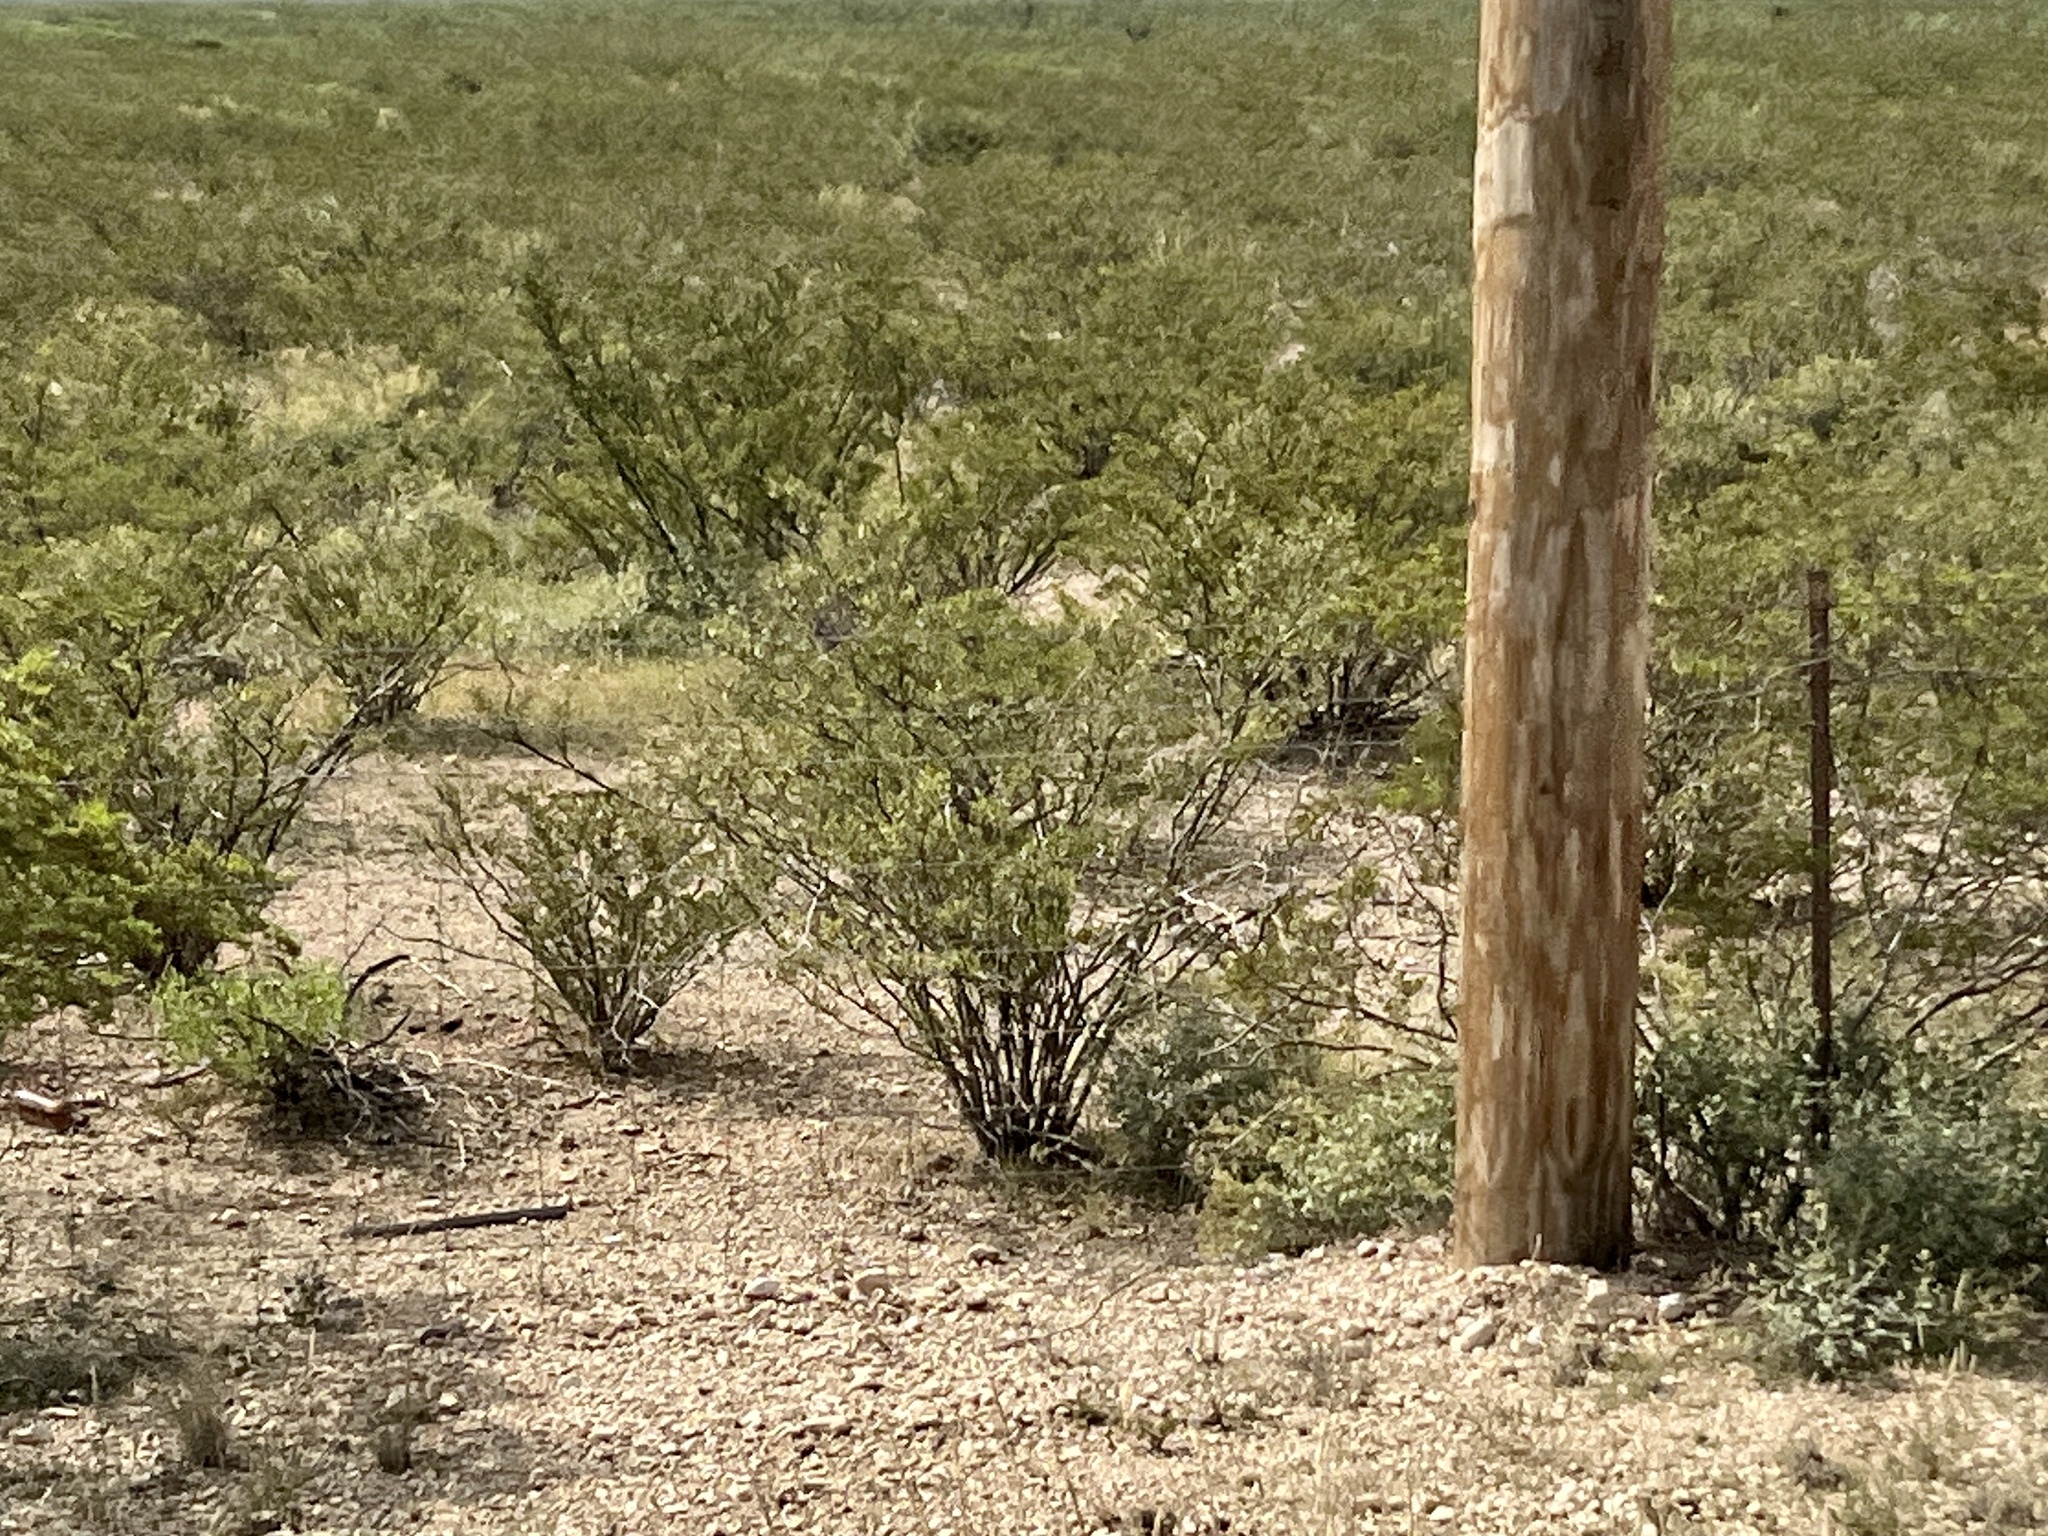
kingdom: Plantae
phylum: Tracheophyta
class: Magnoliopsida
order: Zygophyllales
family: Zygophyllaceae
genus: Larrea
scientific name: Larrea tridentata
